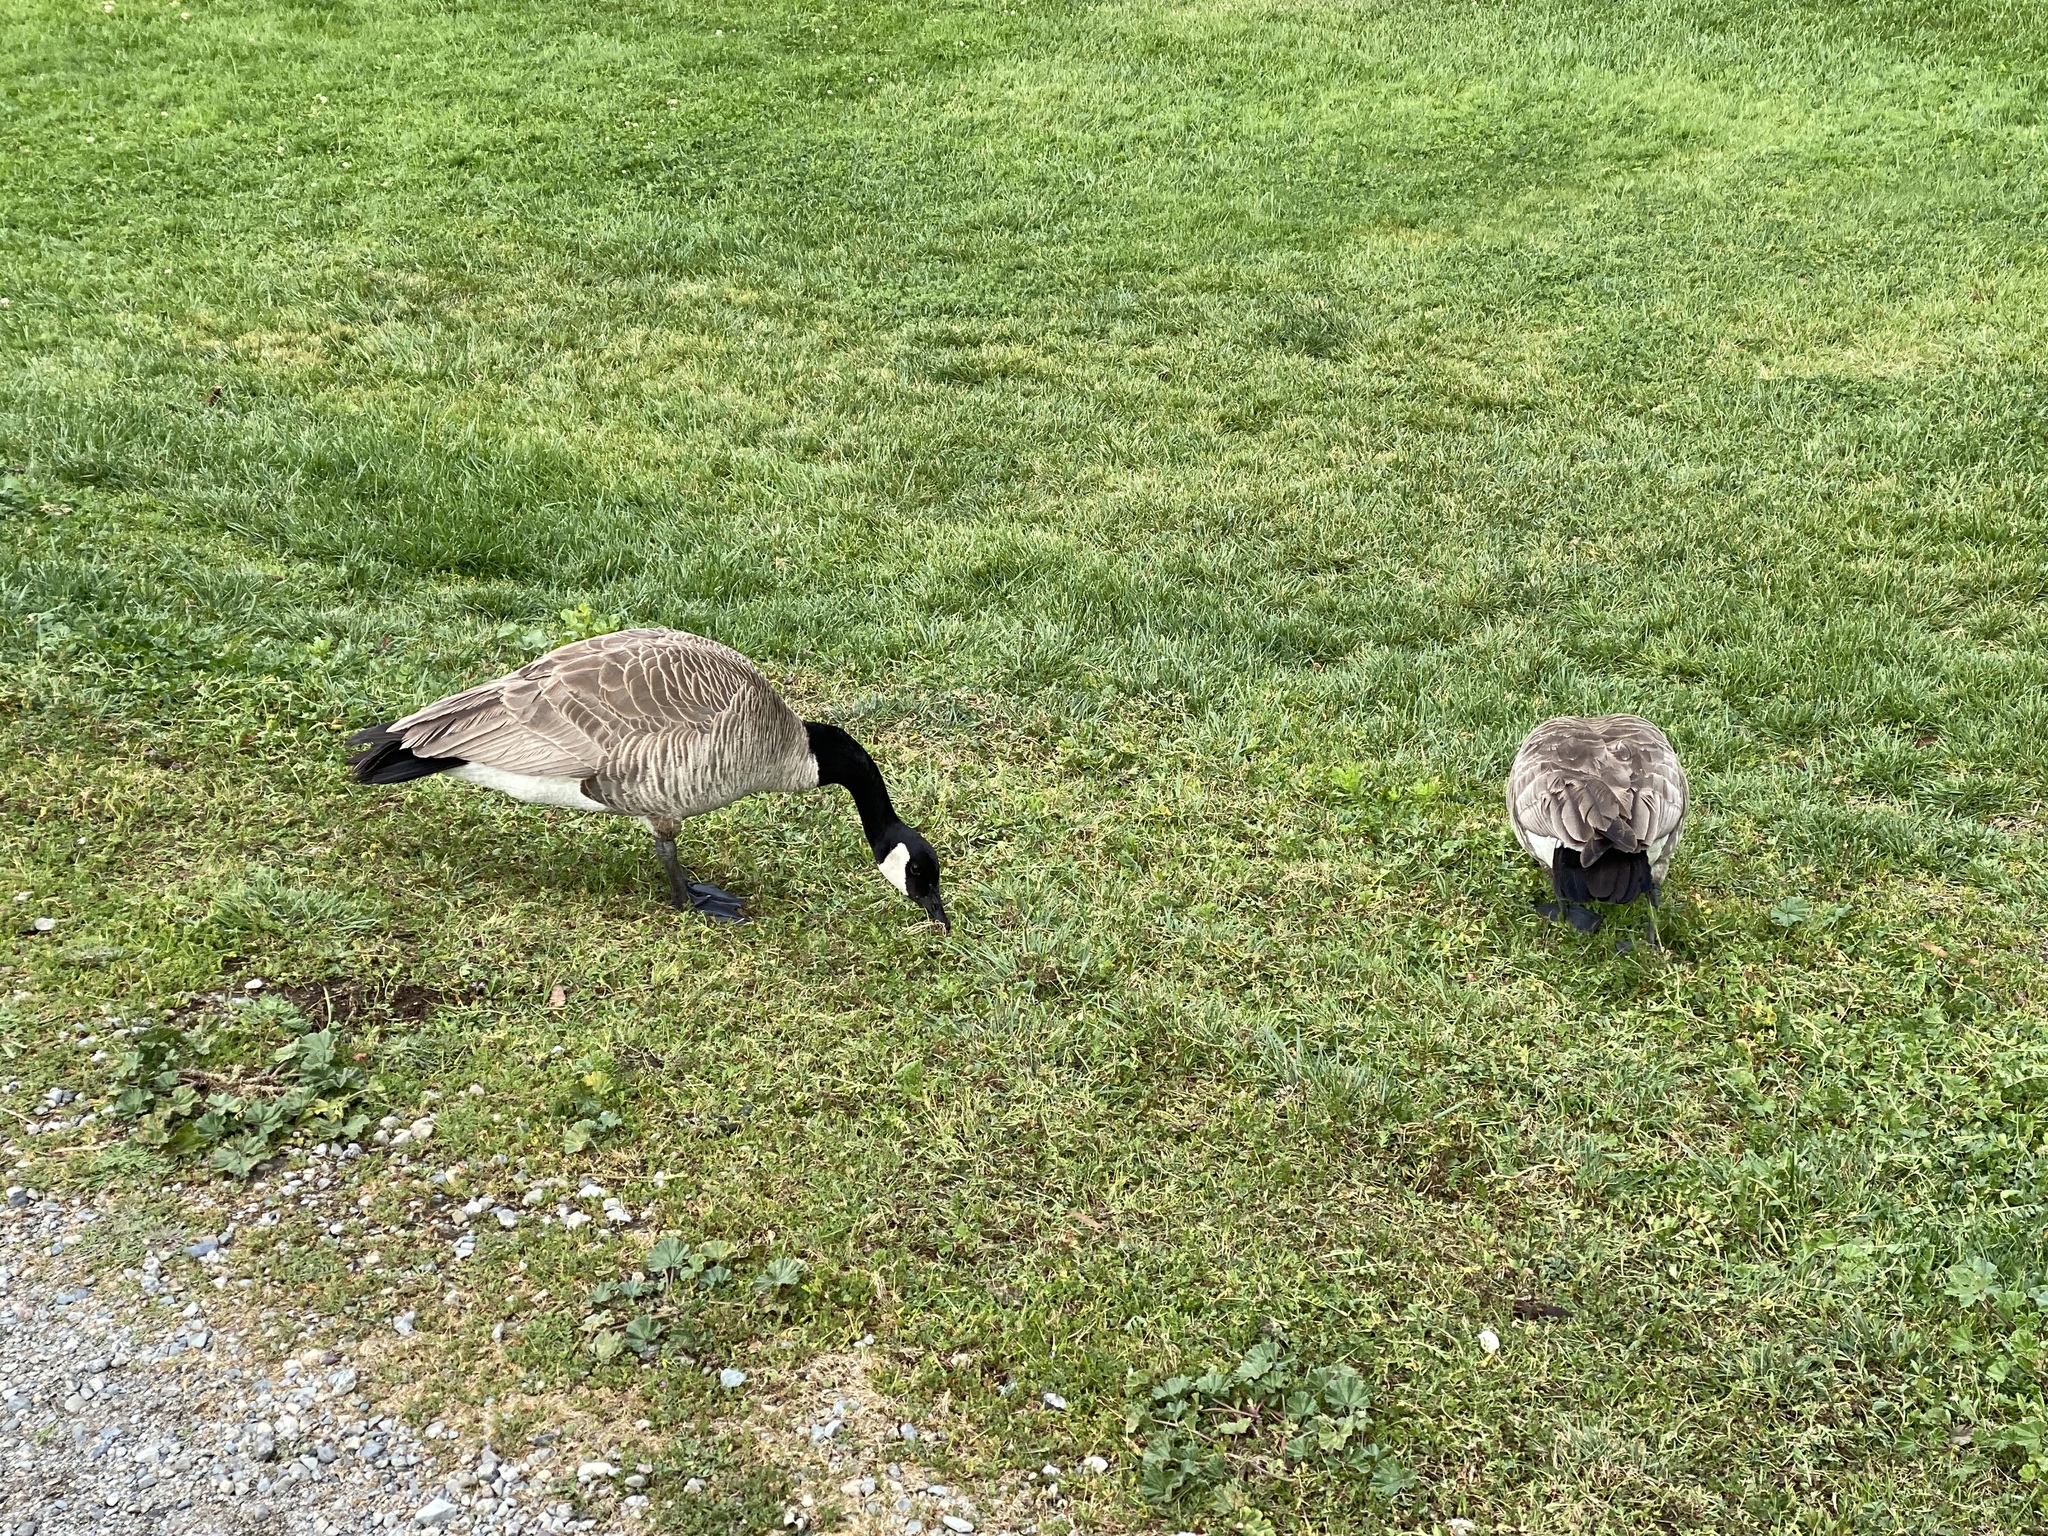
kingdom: Animalia
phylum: Chordata
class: Aves
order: Anseriformes
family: Anatidae
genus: Branta
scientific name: Branta canadensis
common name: Canada goose
